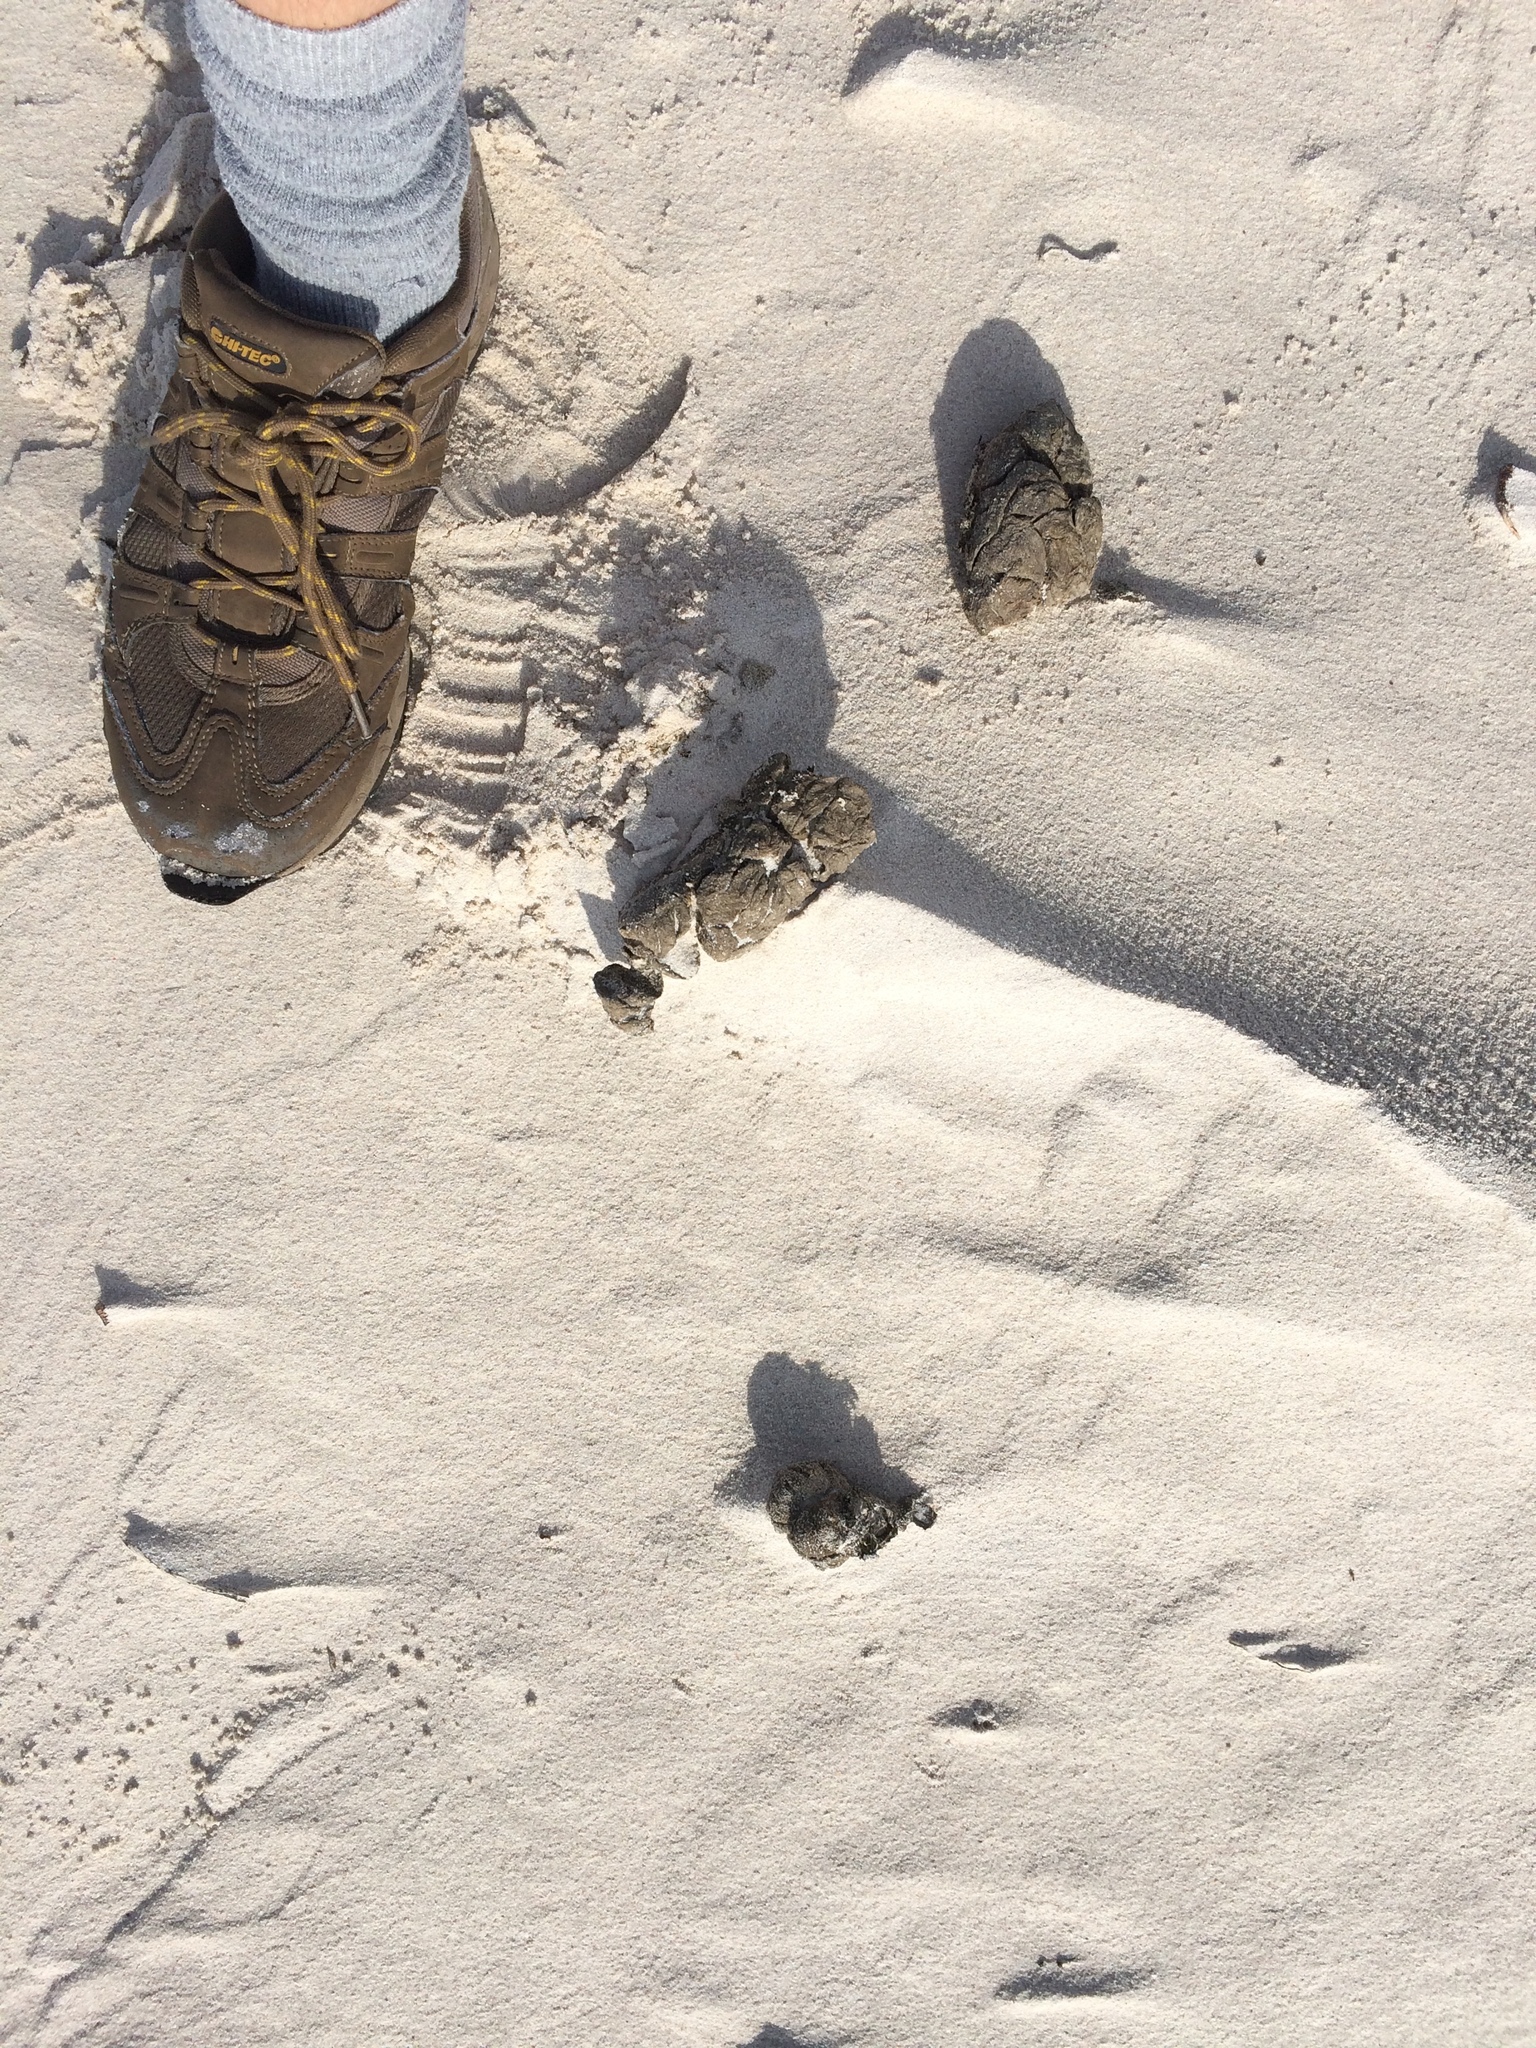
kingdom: Animalia
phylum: Chordata
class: Aves
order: Struthioniformes
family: Struthionidae
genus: Struthio
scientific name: Struthio camelus
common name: Common ostrich
